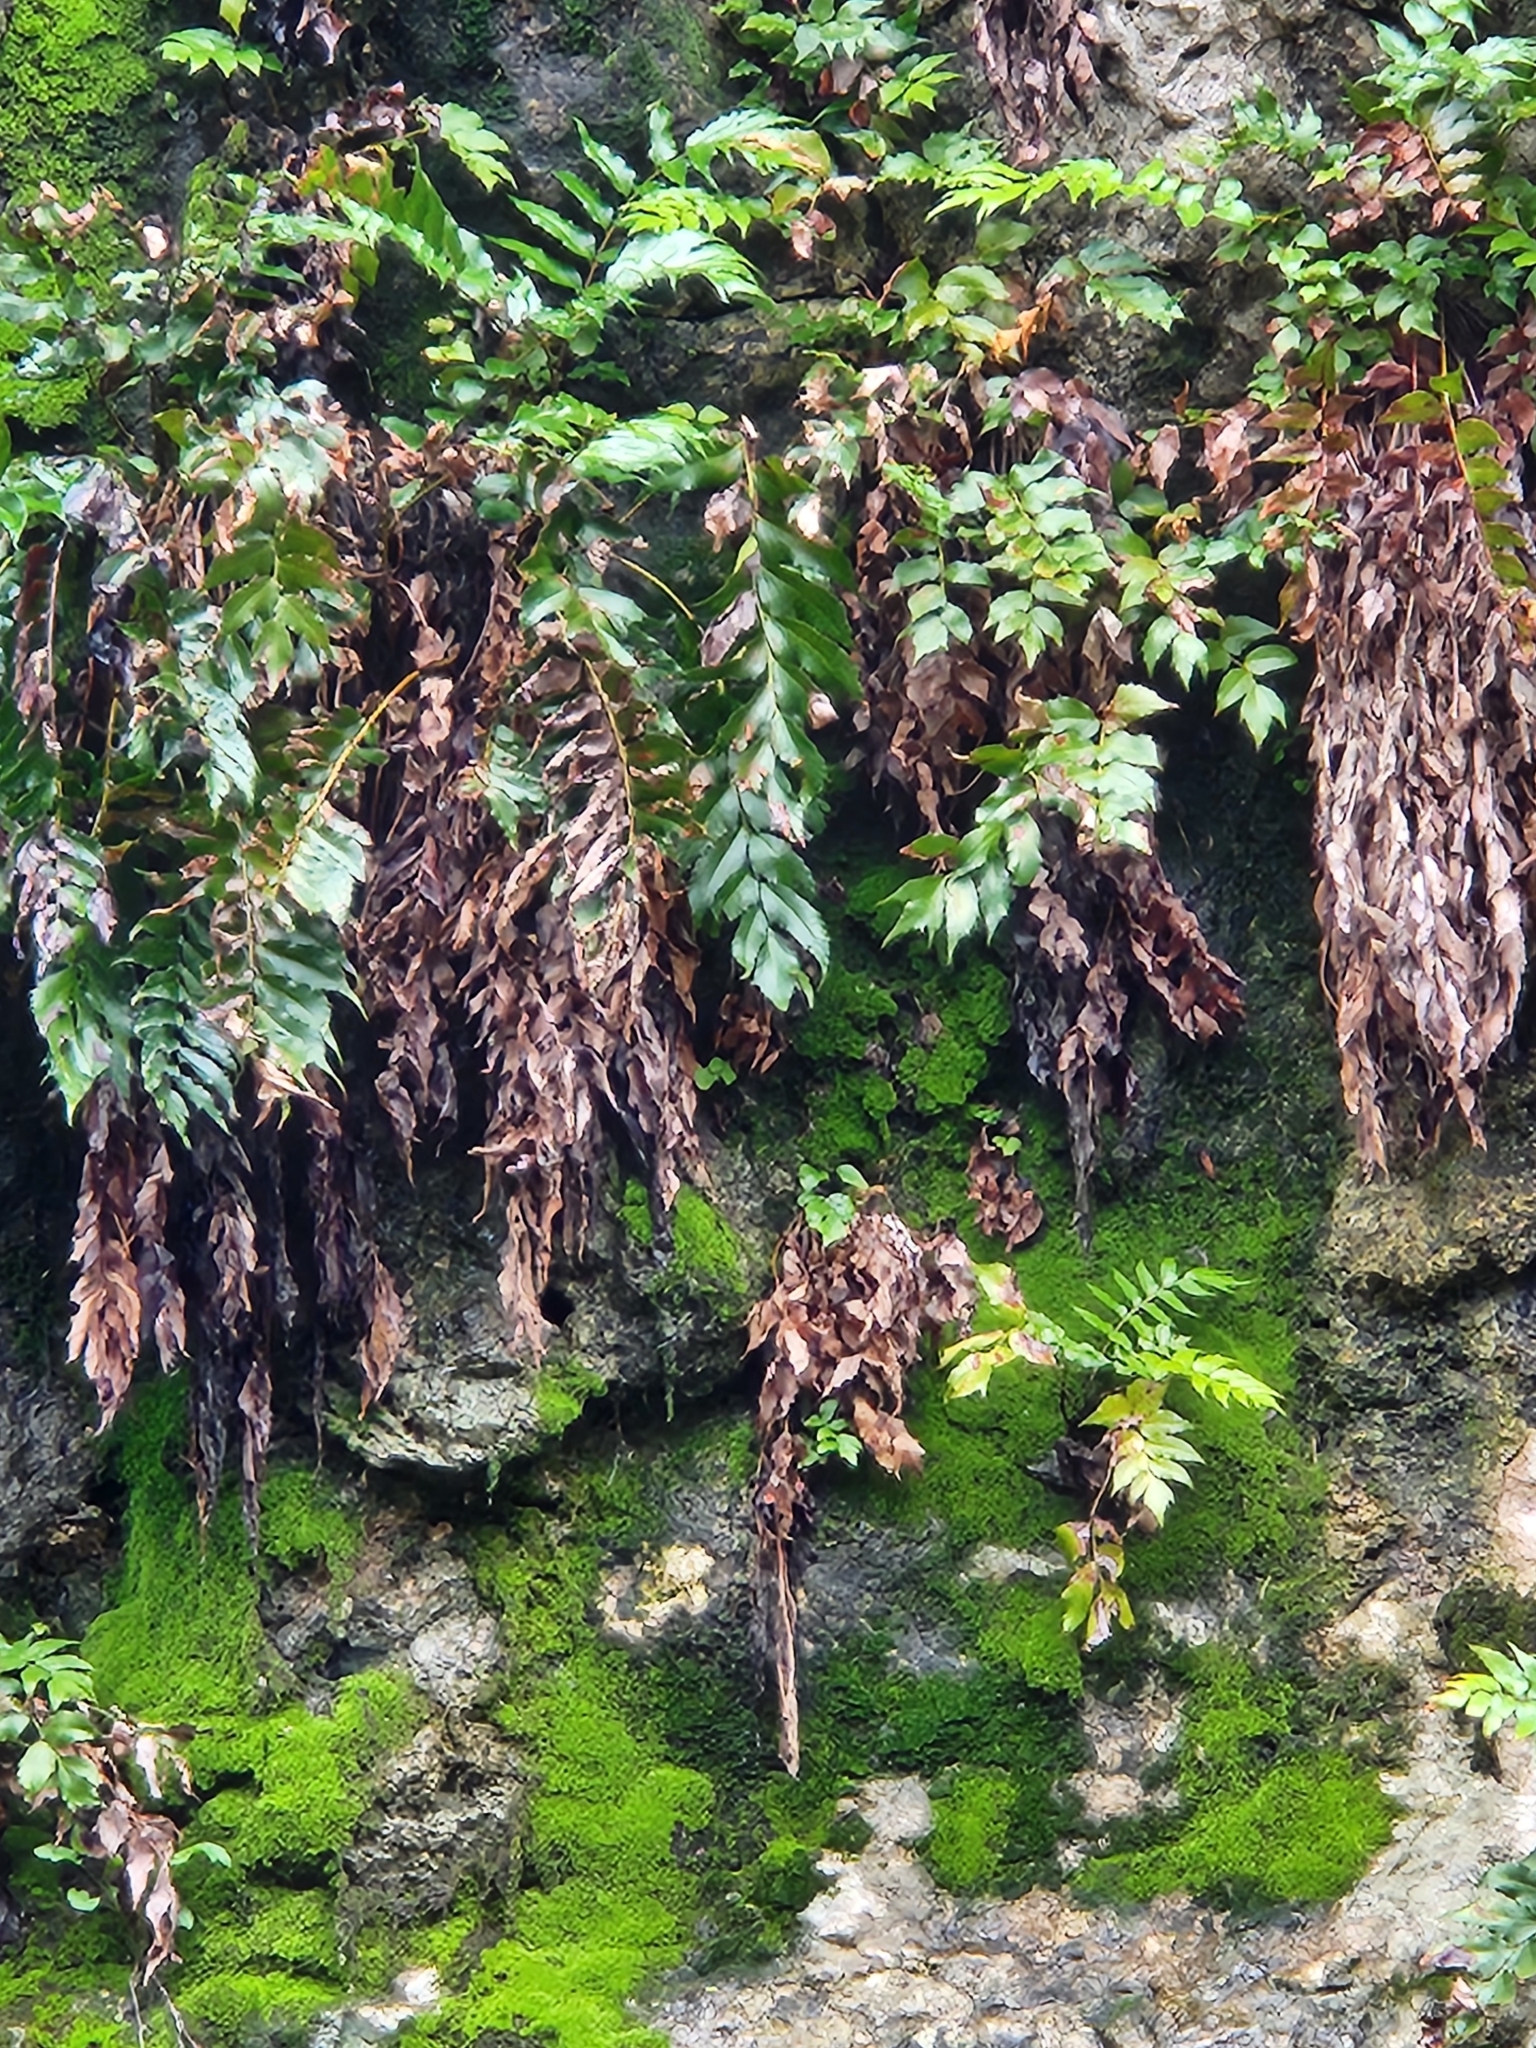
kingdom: Plantae
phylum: Tracheophyta
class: Polypodiopsida
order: Polypodiales
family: Dryopteridaceae
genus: Cyrtomium
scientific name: Cyrtomium falcatum
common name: House holly-fern
